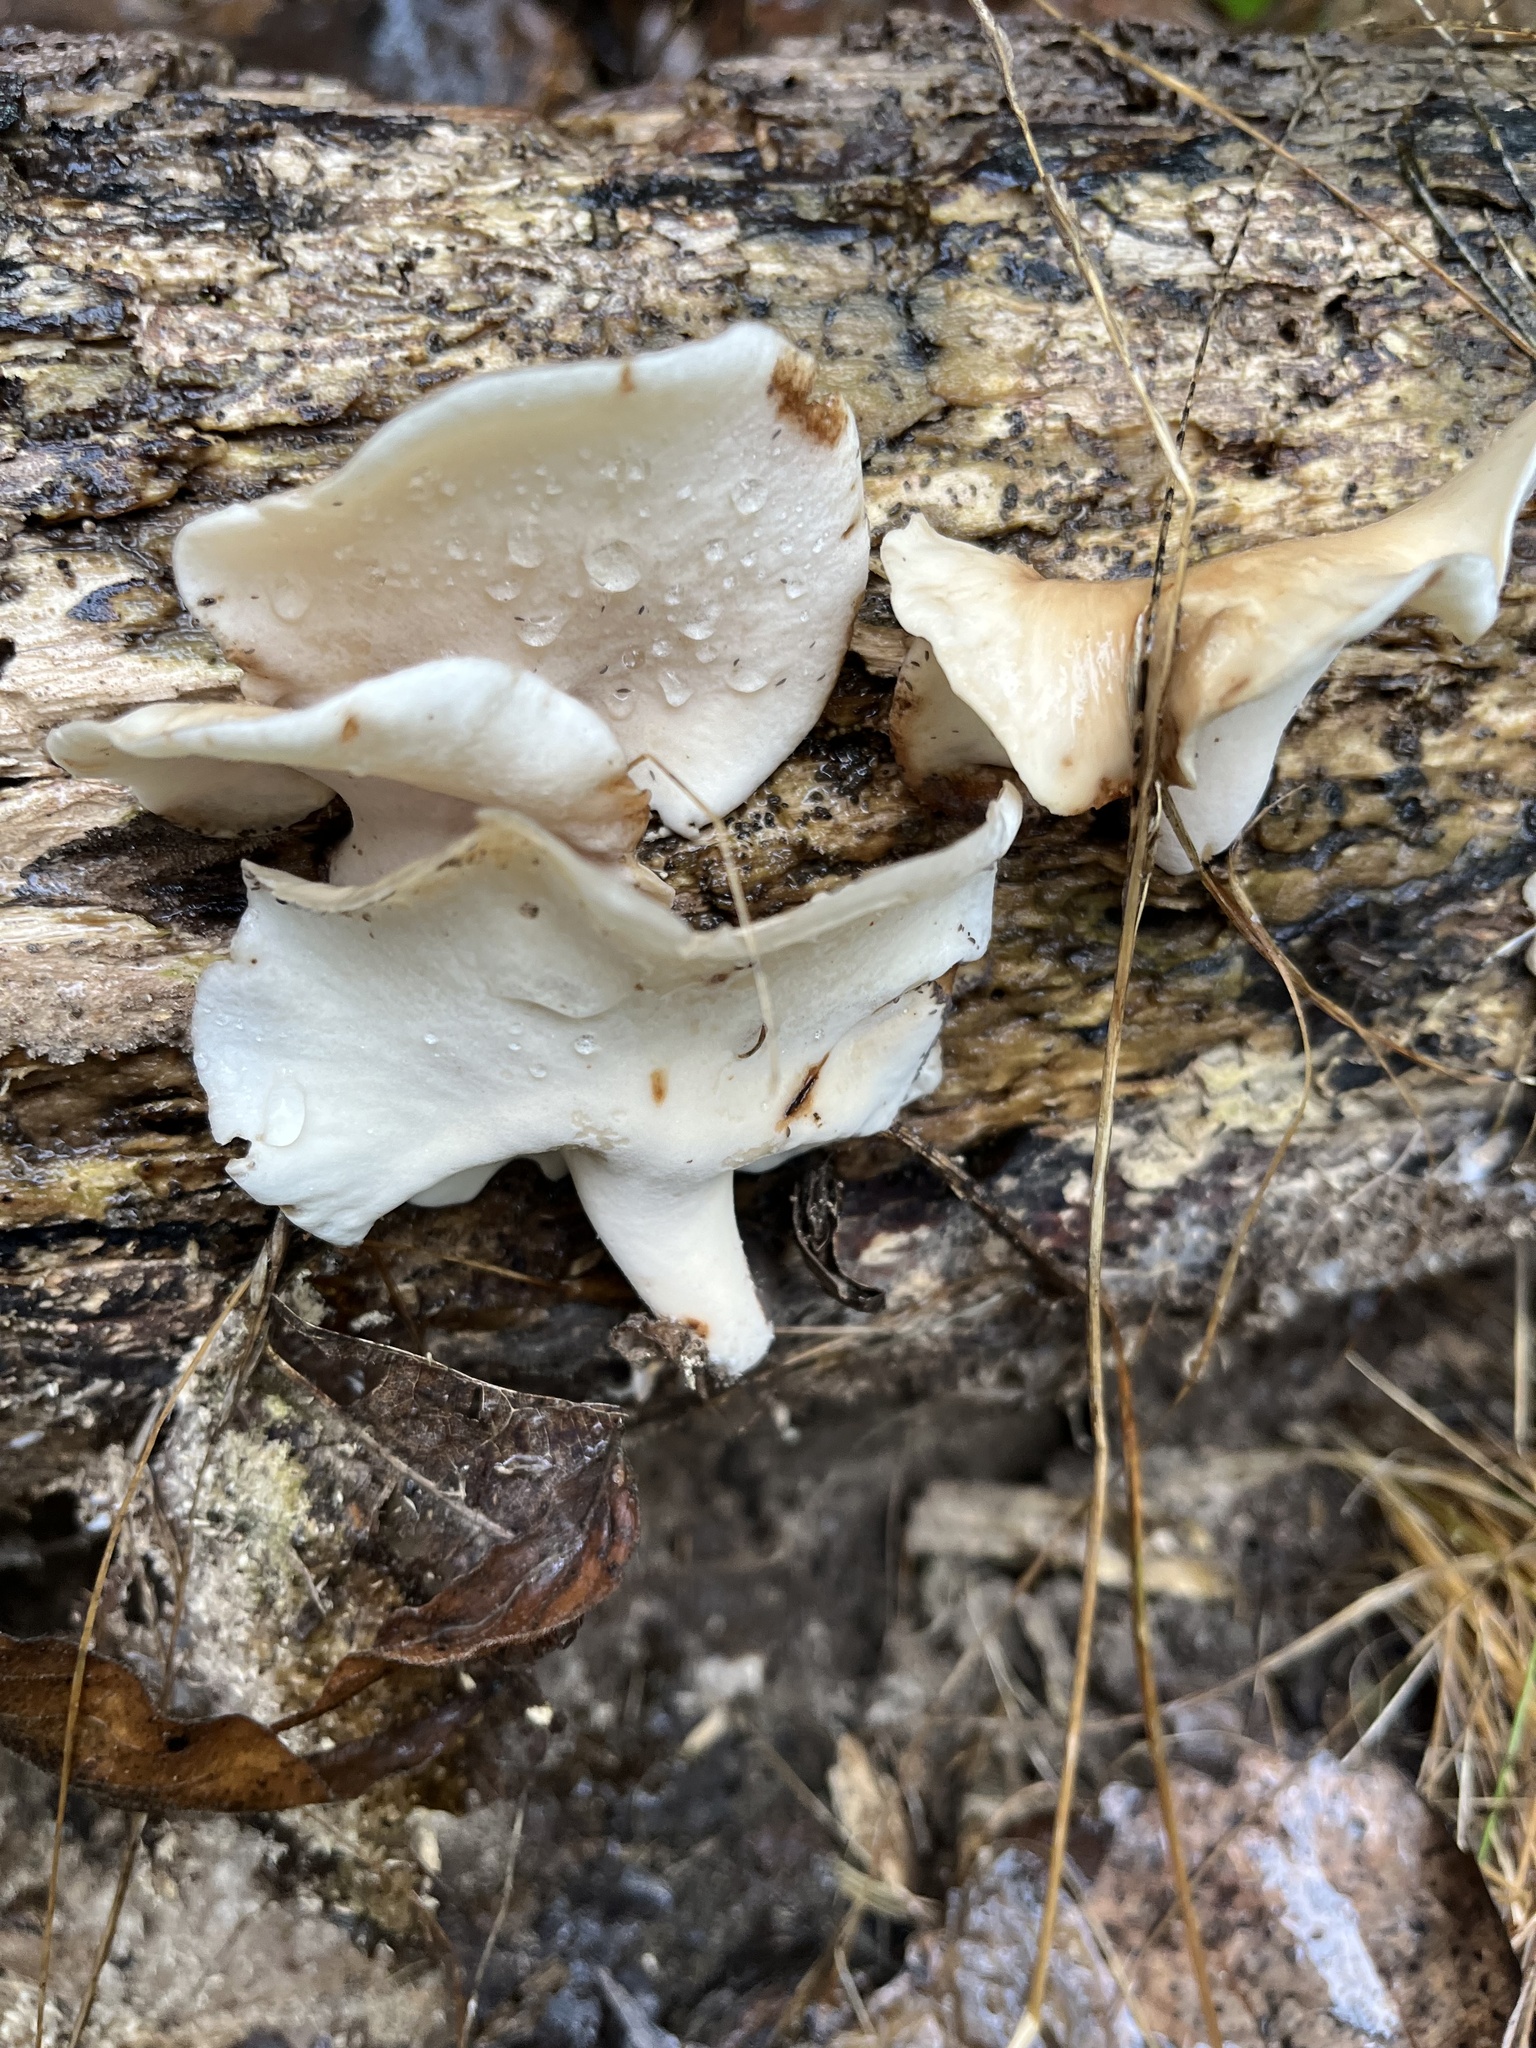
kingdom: Fungi
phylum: Basidiomycota
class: Agaricomycetes
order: Polyporales
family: Polyporaceae
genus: Picipes
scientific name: Picipes badius
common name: Bay polypore
